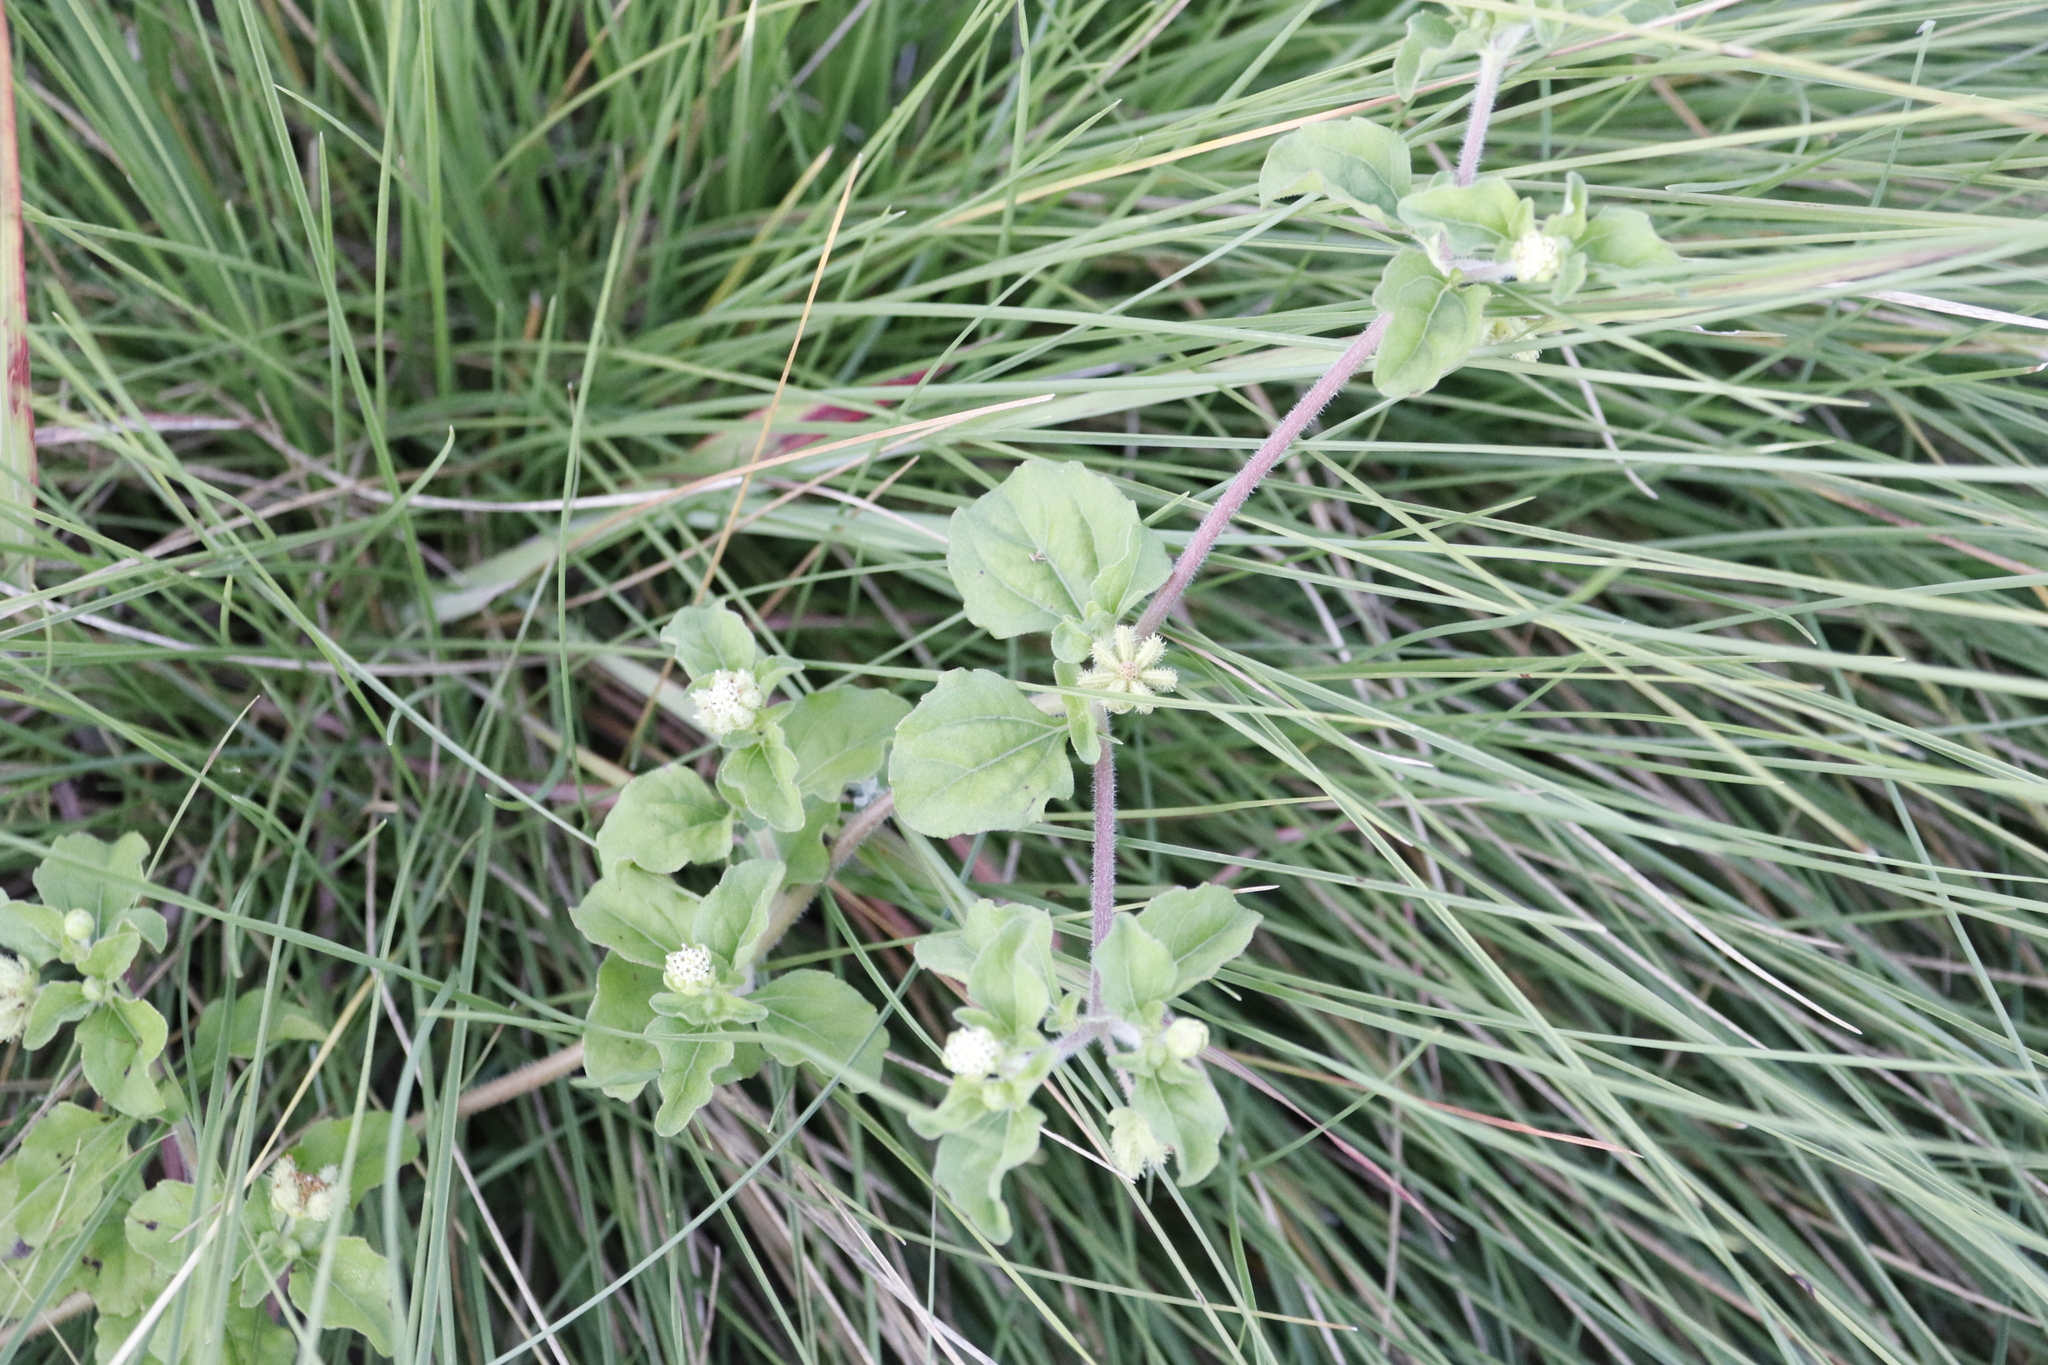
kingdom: Plantae
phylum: Tracheophyta
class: Magnoliopsida
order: Asterales
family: Asteraceae
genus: Acanthospermum
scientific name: Acanthospermum australe
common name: Paraguayan starbur
